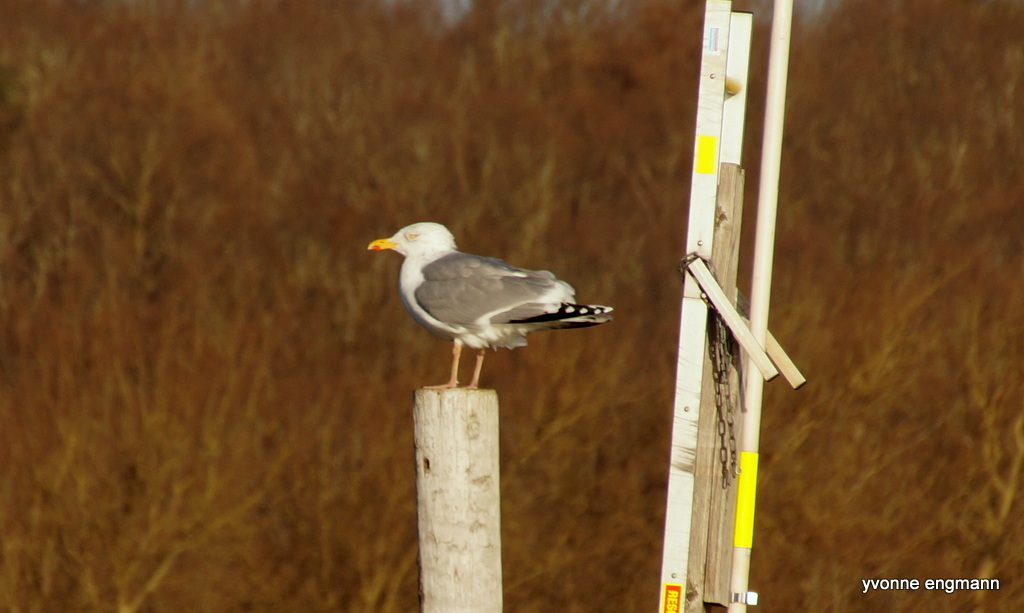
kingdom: Animalia
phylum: Chordata
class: Aves
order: Charadriiformes
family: Laridae
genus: Larus
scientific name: Larus argentatus
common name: Herring gull
